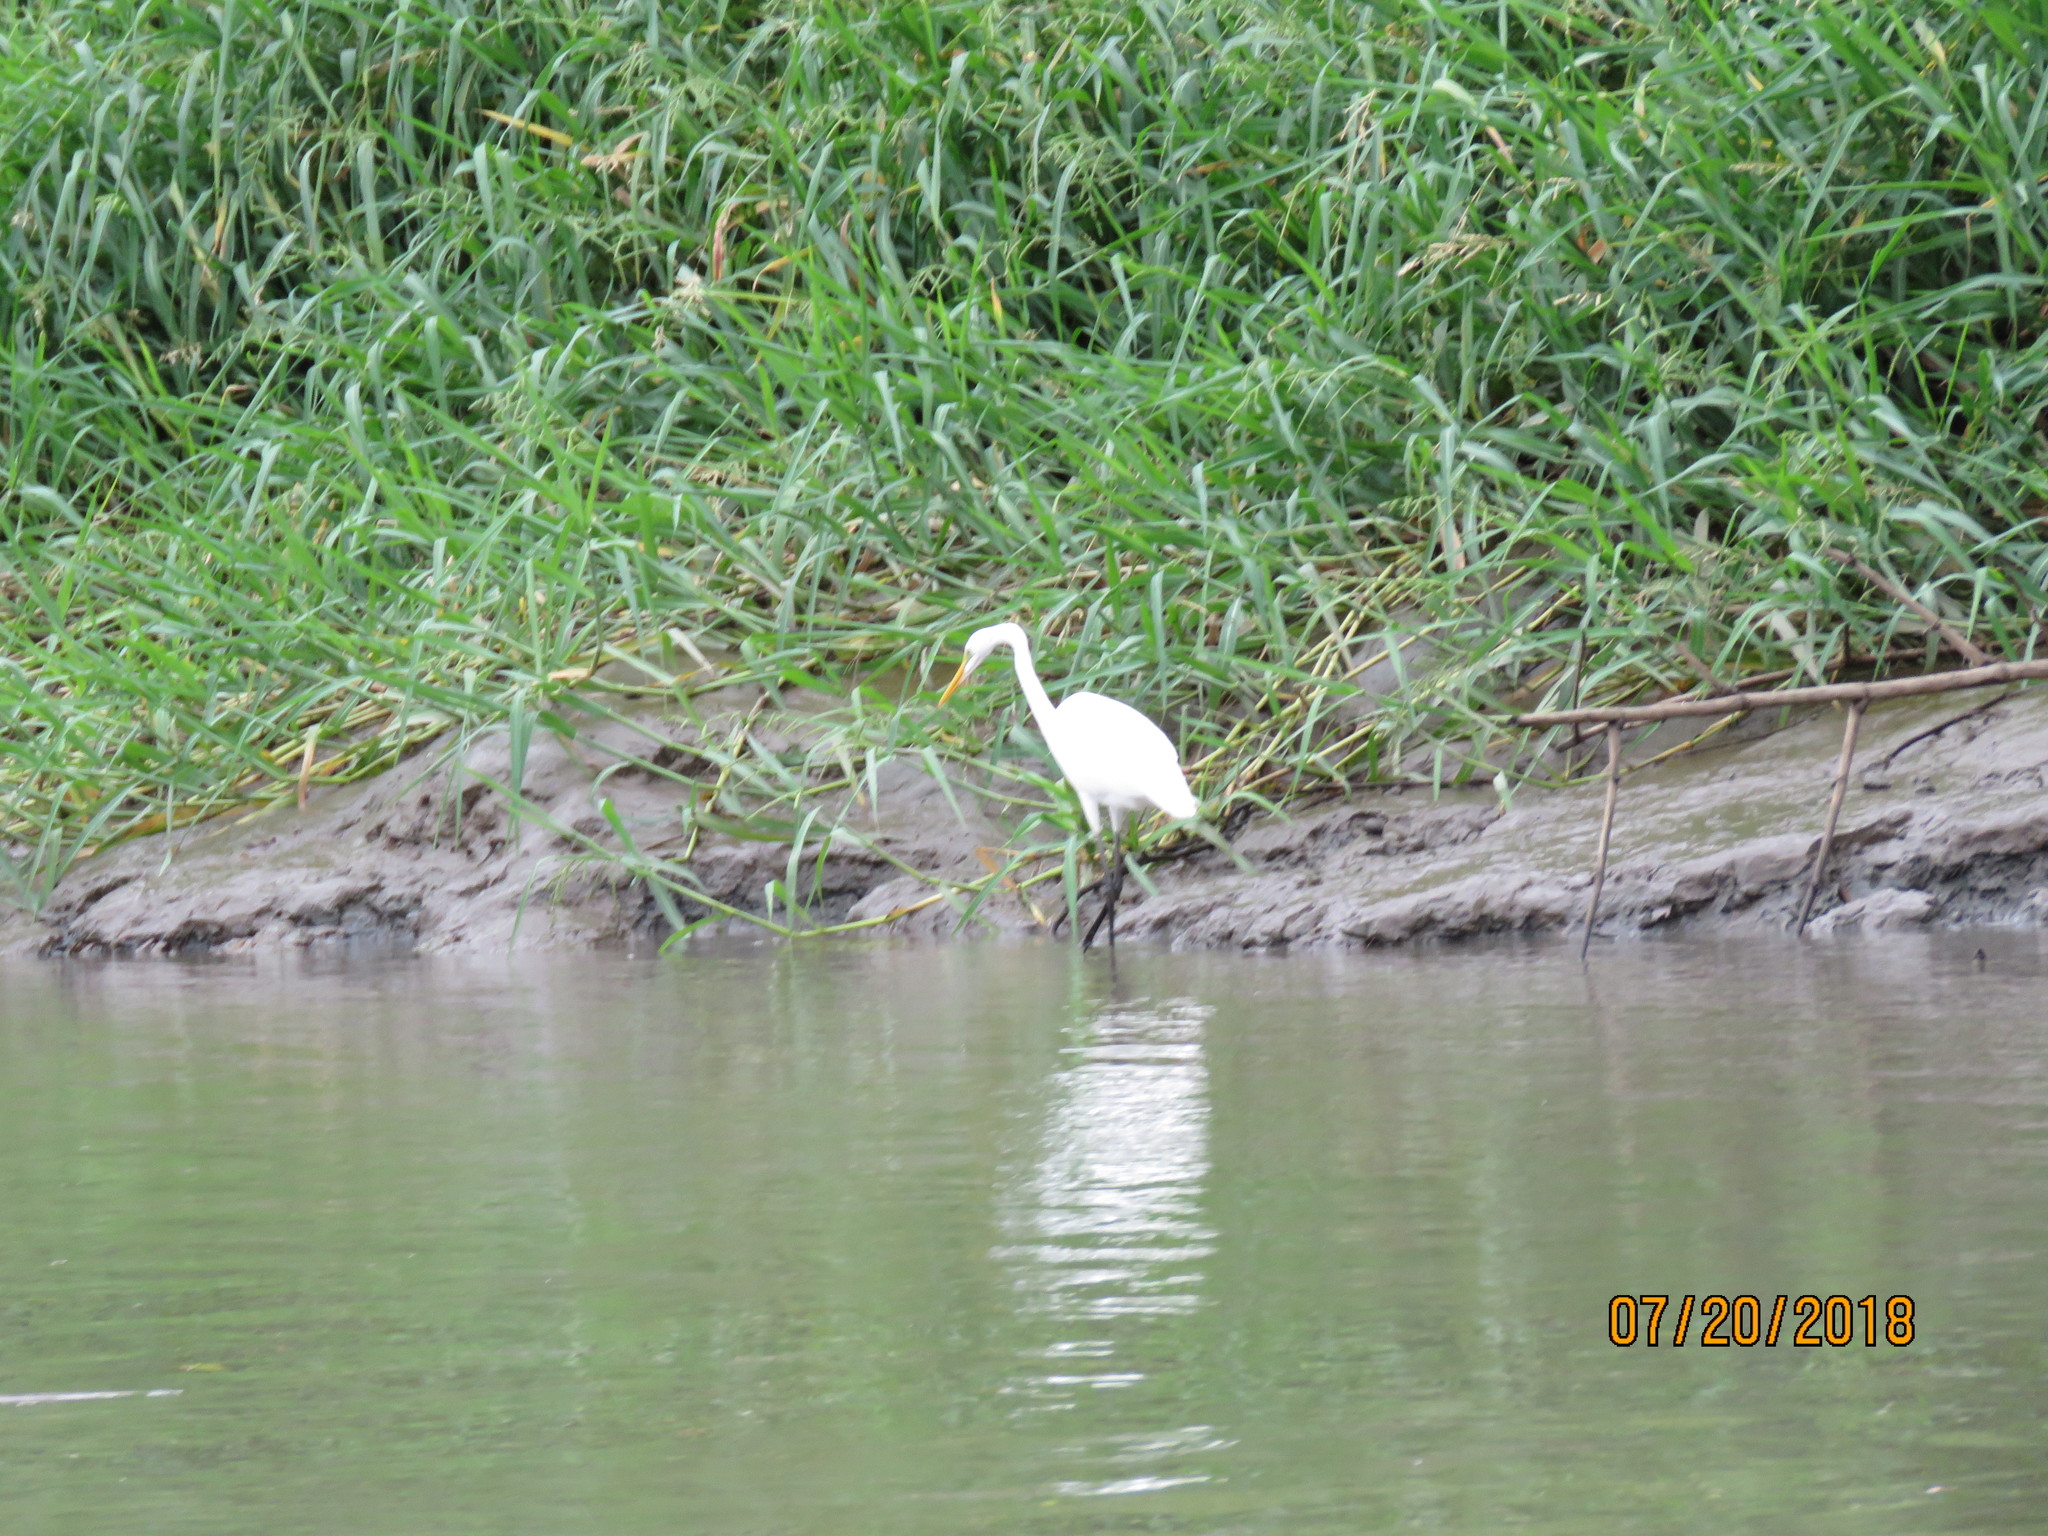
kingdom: Animalia
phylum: Chordata
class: Aves
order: Pelecaniformes
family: Ardeidae
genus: Ardea
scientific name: Ardea alba
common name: Great egret
